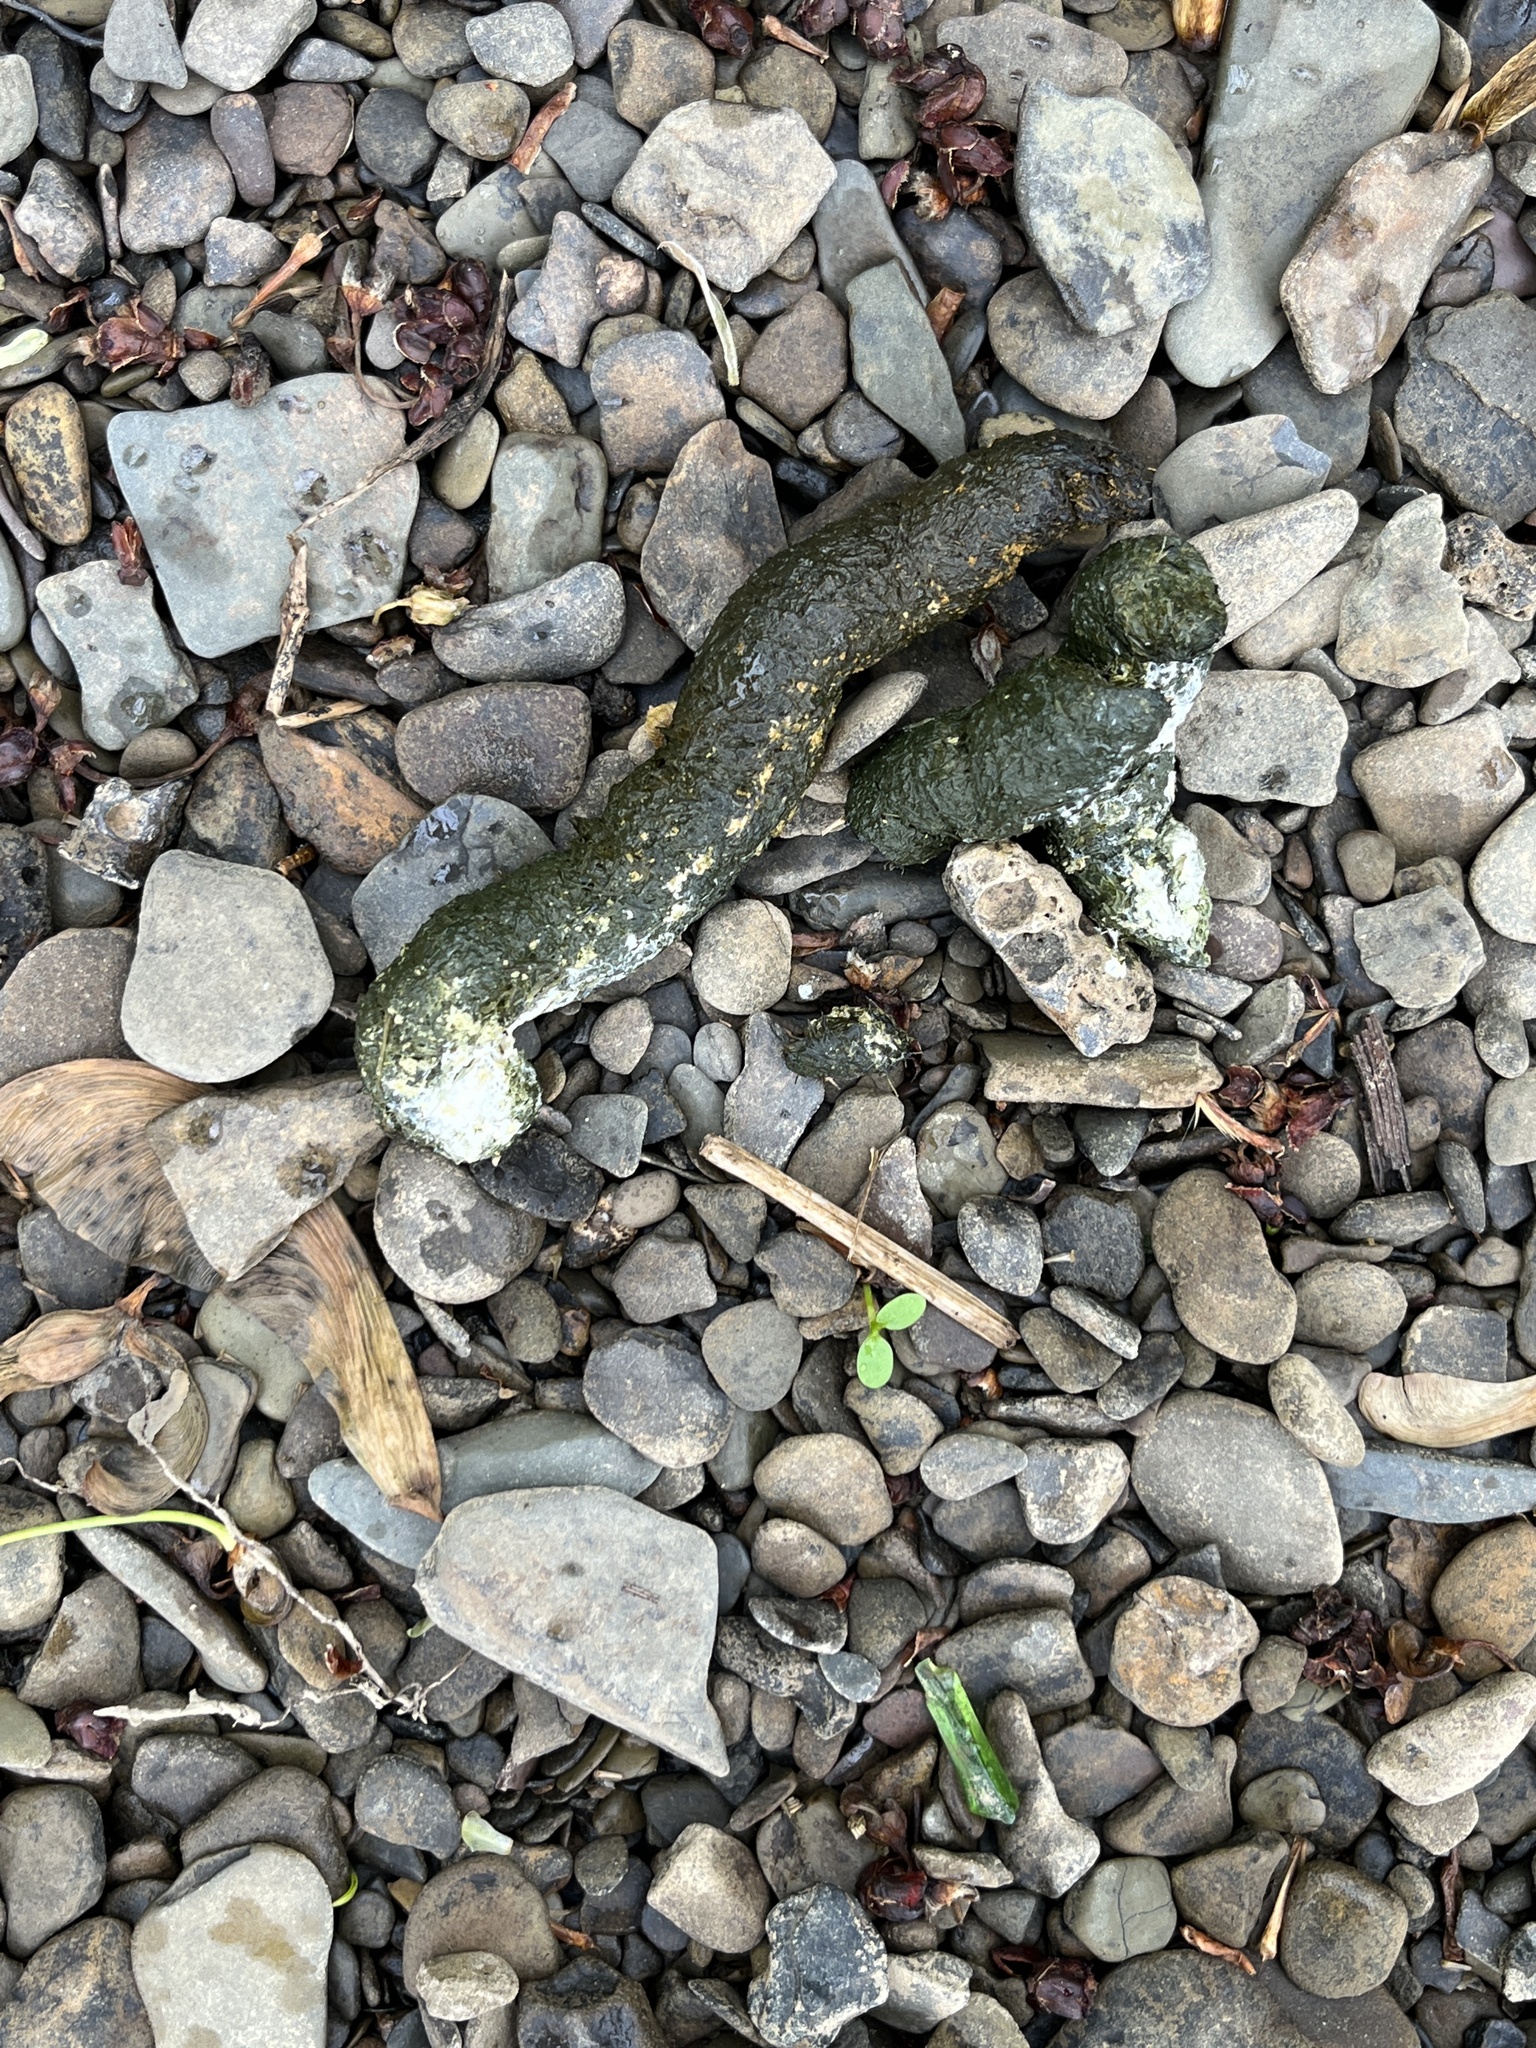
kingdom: Animalia
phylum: Chordata
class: Aves
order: Anseriformes
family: Anatidae
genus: Branta
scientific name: Branta canadensis
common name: Canada goose
